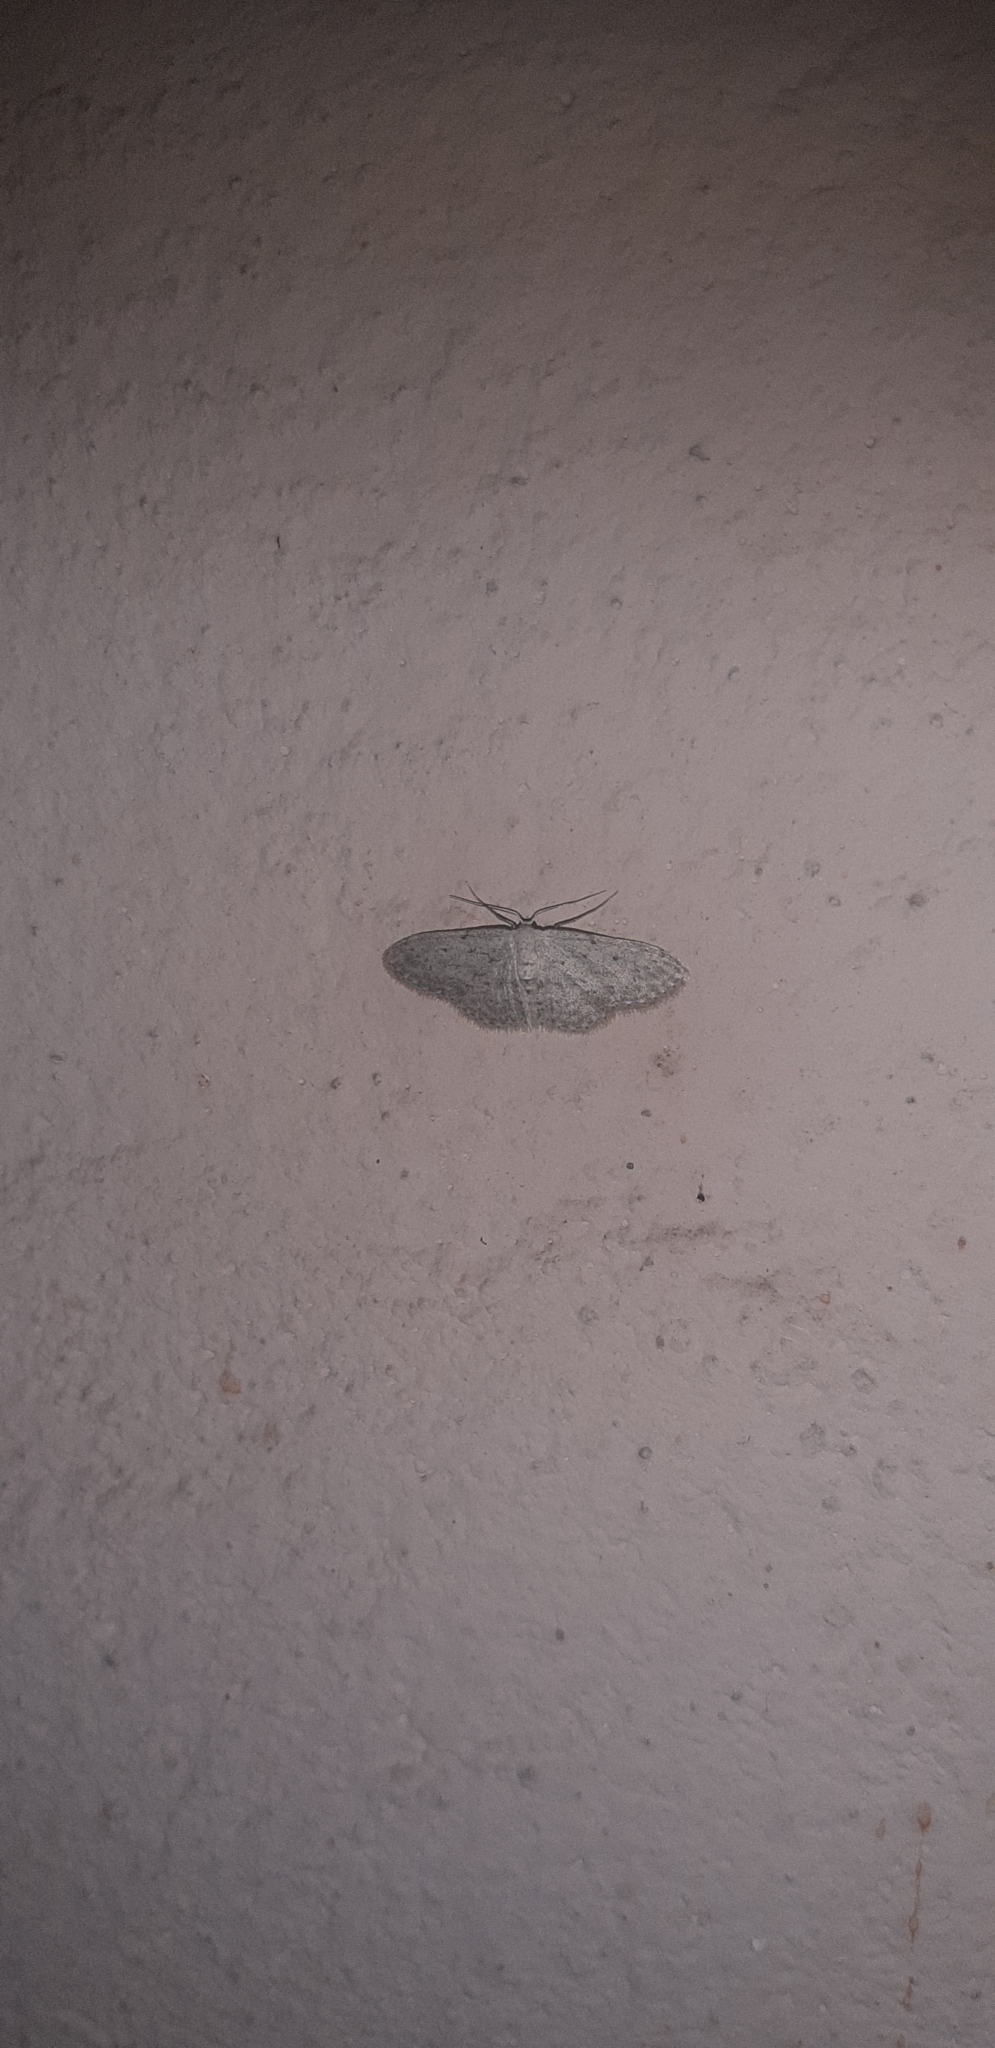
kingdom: Animalia
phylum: Arthropoda
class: Insecta
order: Lepidoptera
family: Geometridae
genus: Idaea
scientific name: Idaea seriata
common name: Small dusty wave
